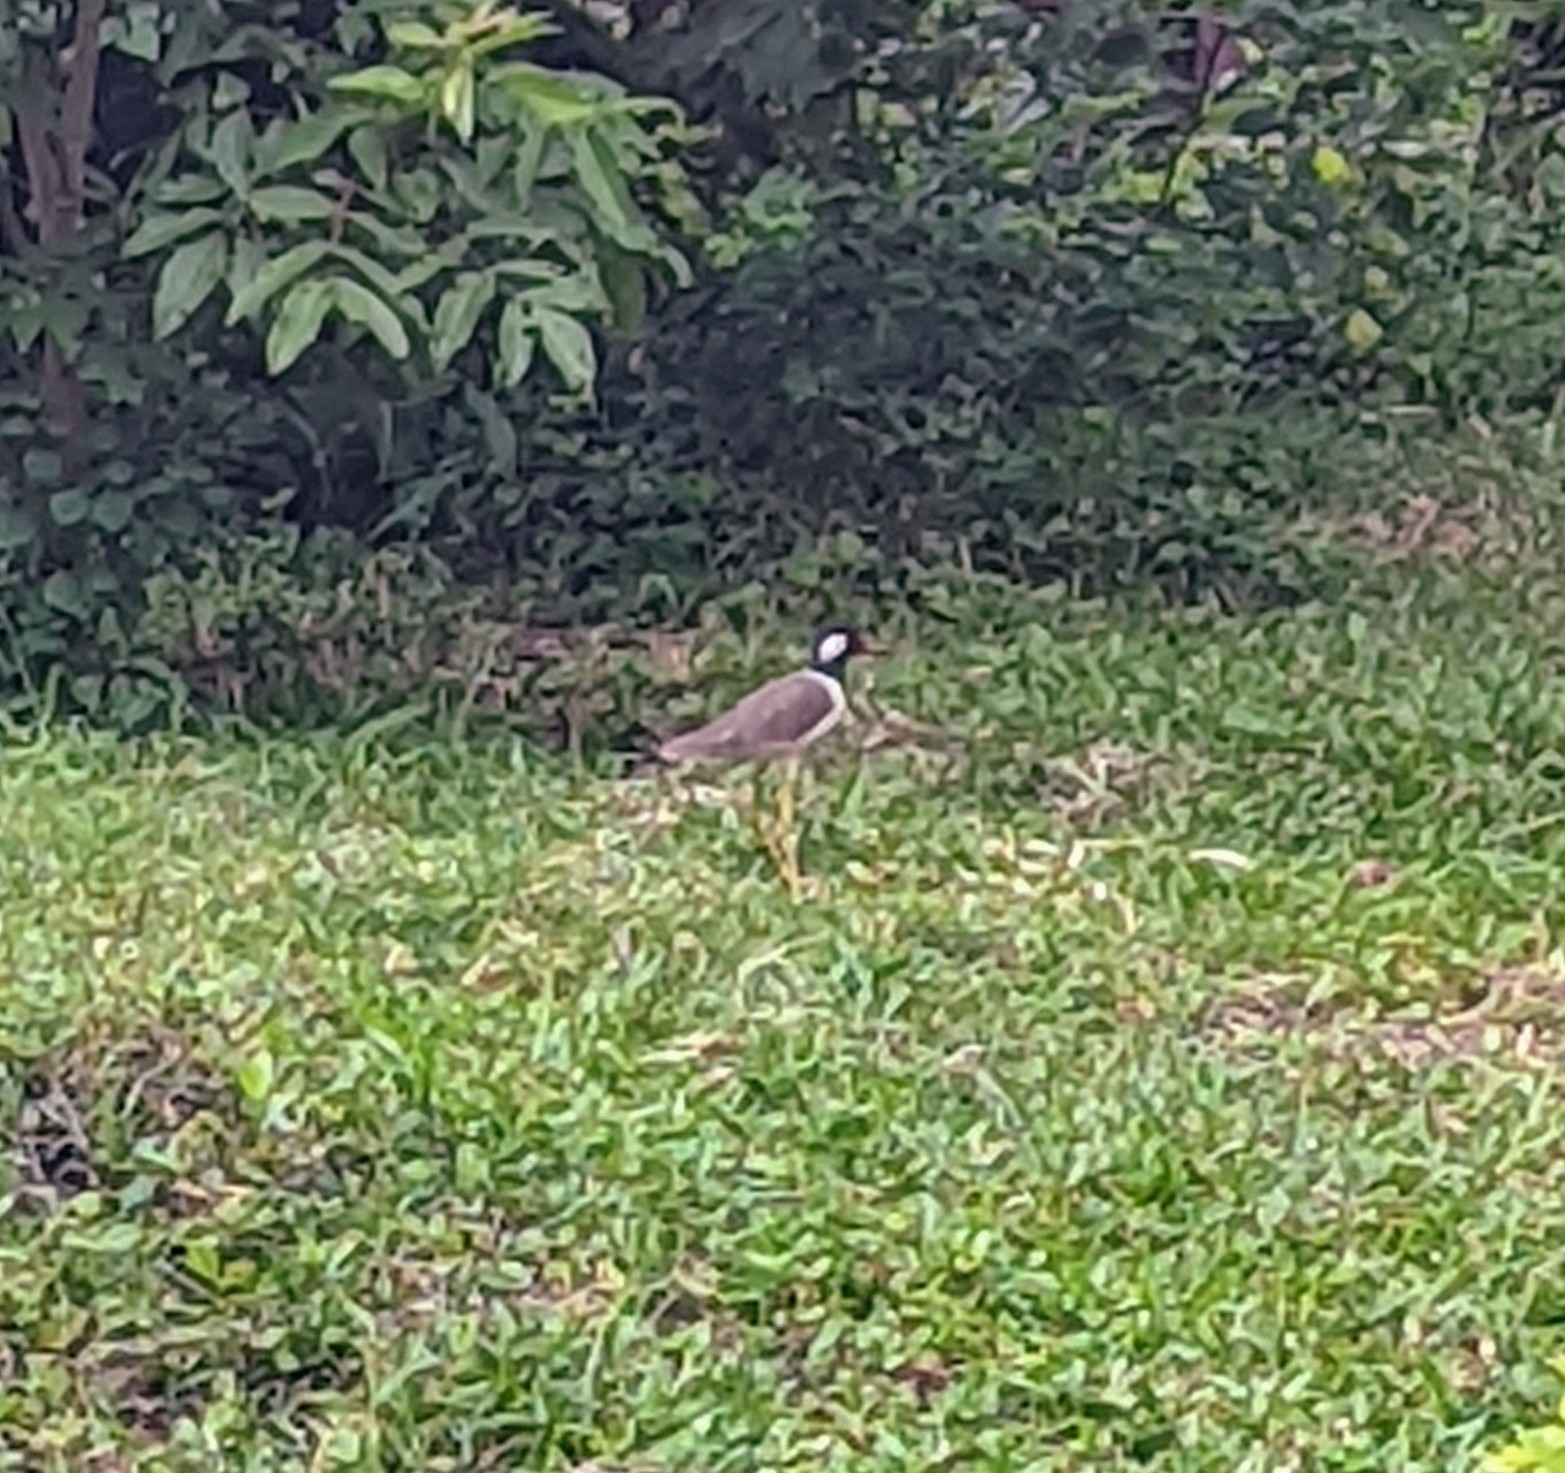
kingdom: Animalia
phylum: Chordata
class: Aves
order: Charadriiformes
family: Charadriidae
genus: Vanellus
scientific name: Vanellus indicus
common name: Red-wattled lapwing
